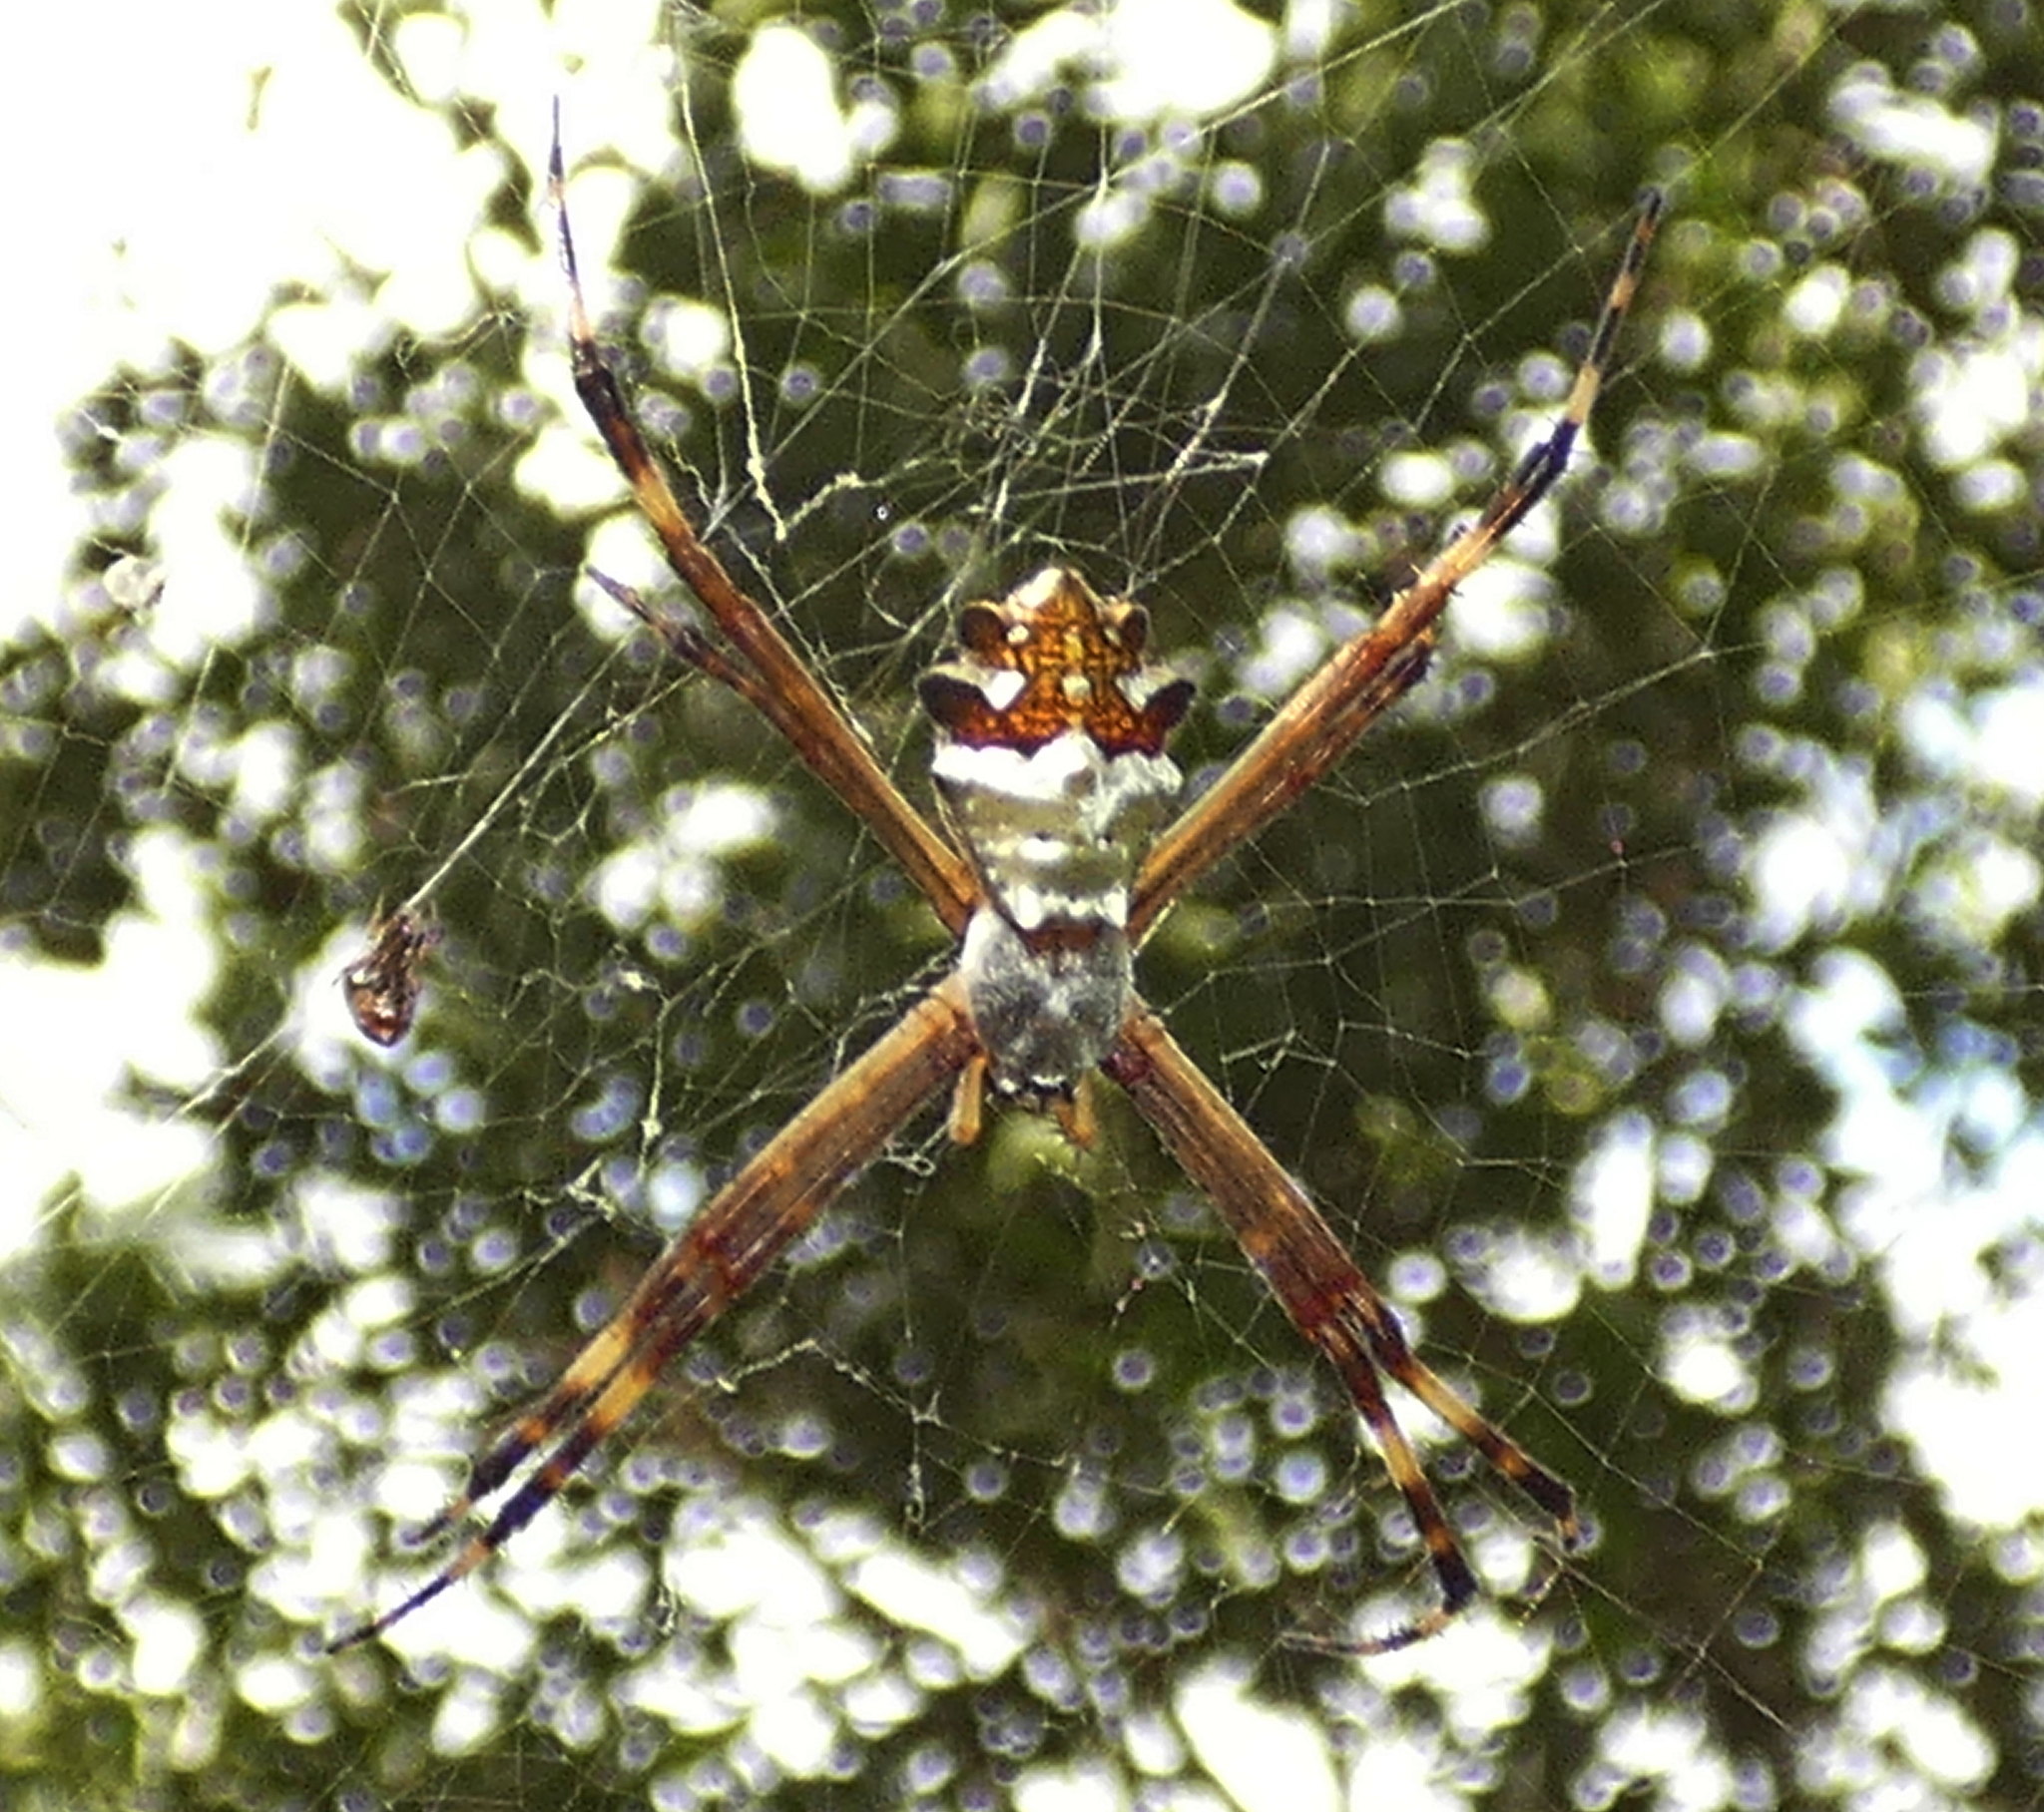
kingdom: Animalia
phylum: Arthropoda
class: Arachnida
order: Araneae
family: Araneidae
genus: Argiope
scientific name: Argiope argentata
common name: Orb weavers
